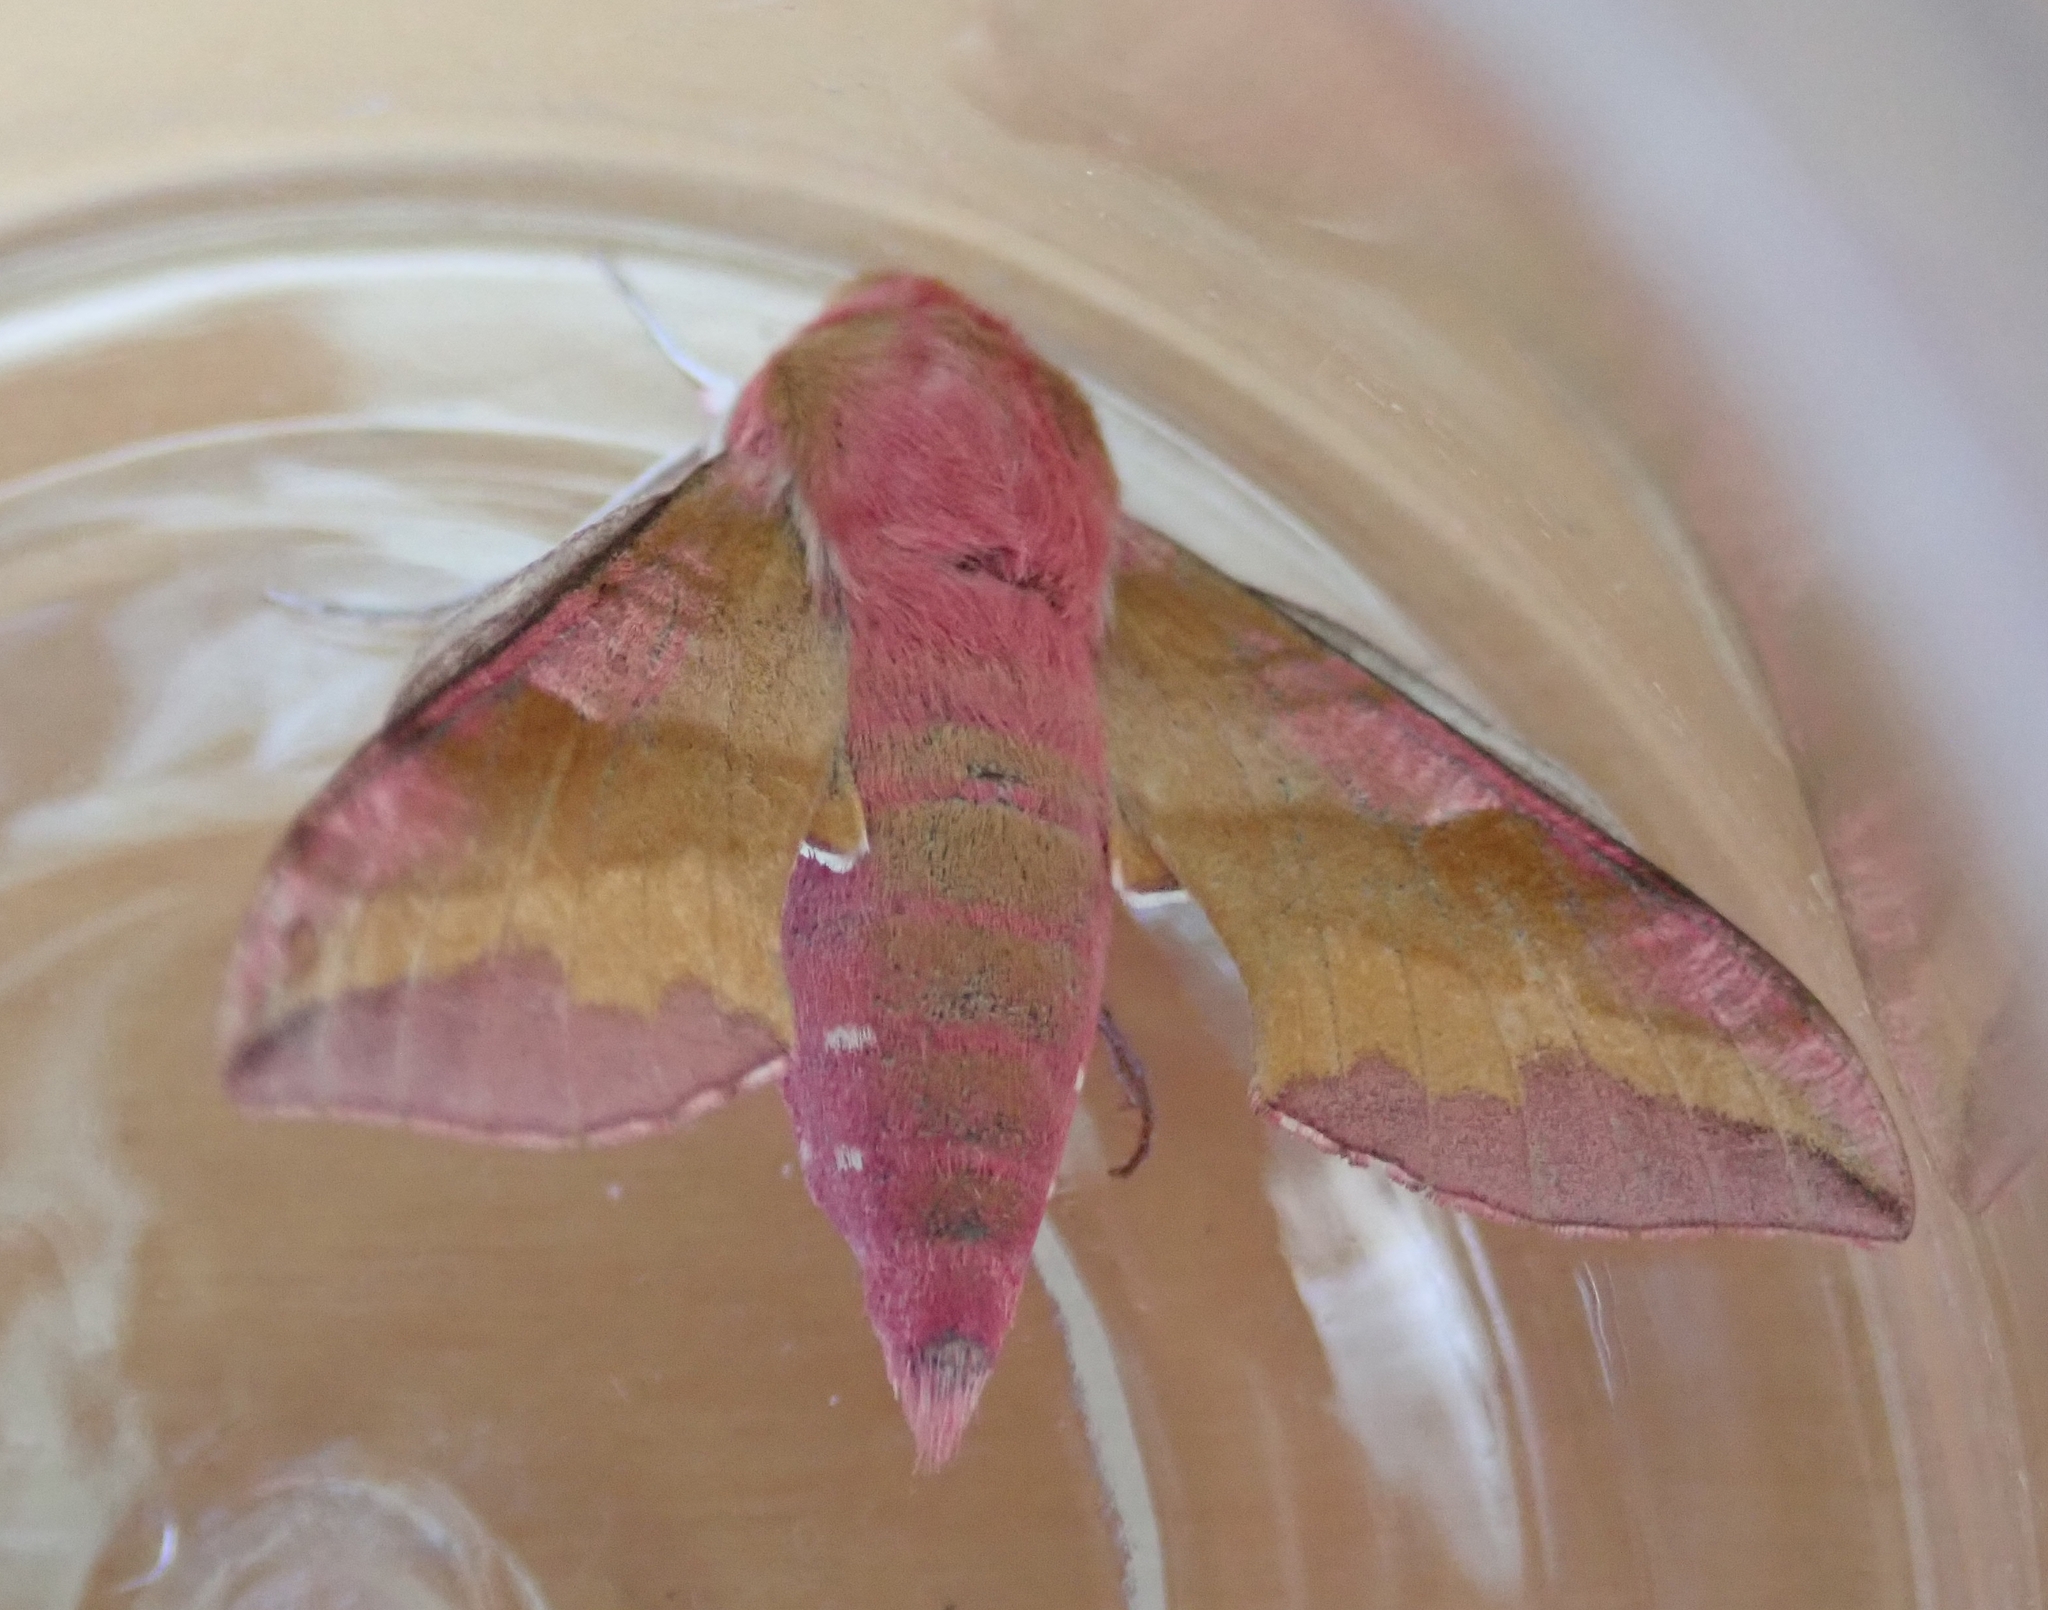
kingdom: Animalia
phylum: Arthropoda
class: Insecta
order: Lepidoptera
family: Sphingidae
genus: Deilephila
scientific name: Deilephila porcellus
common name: Small elephant hawk-moth
